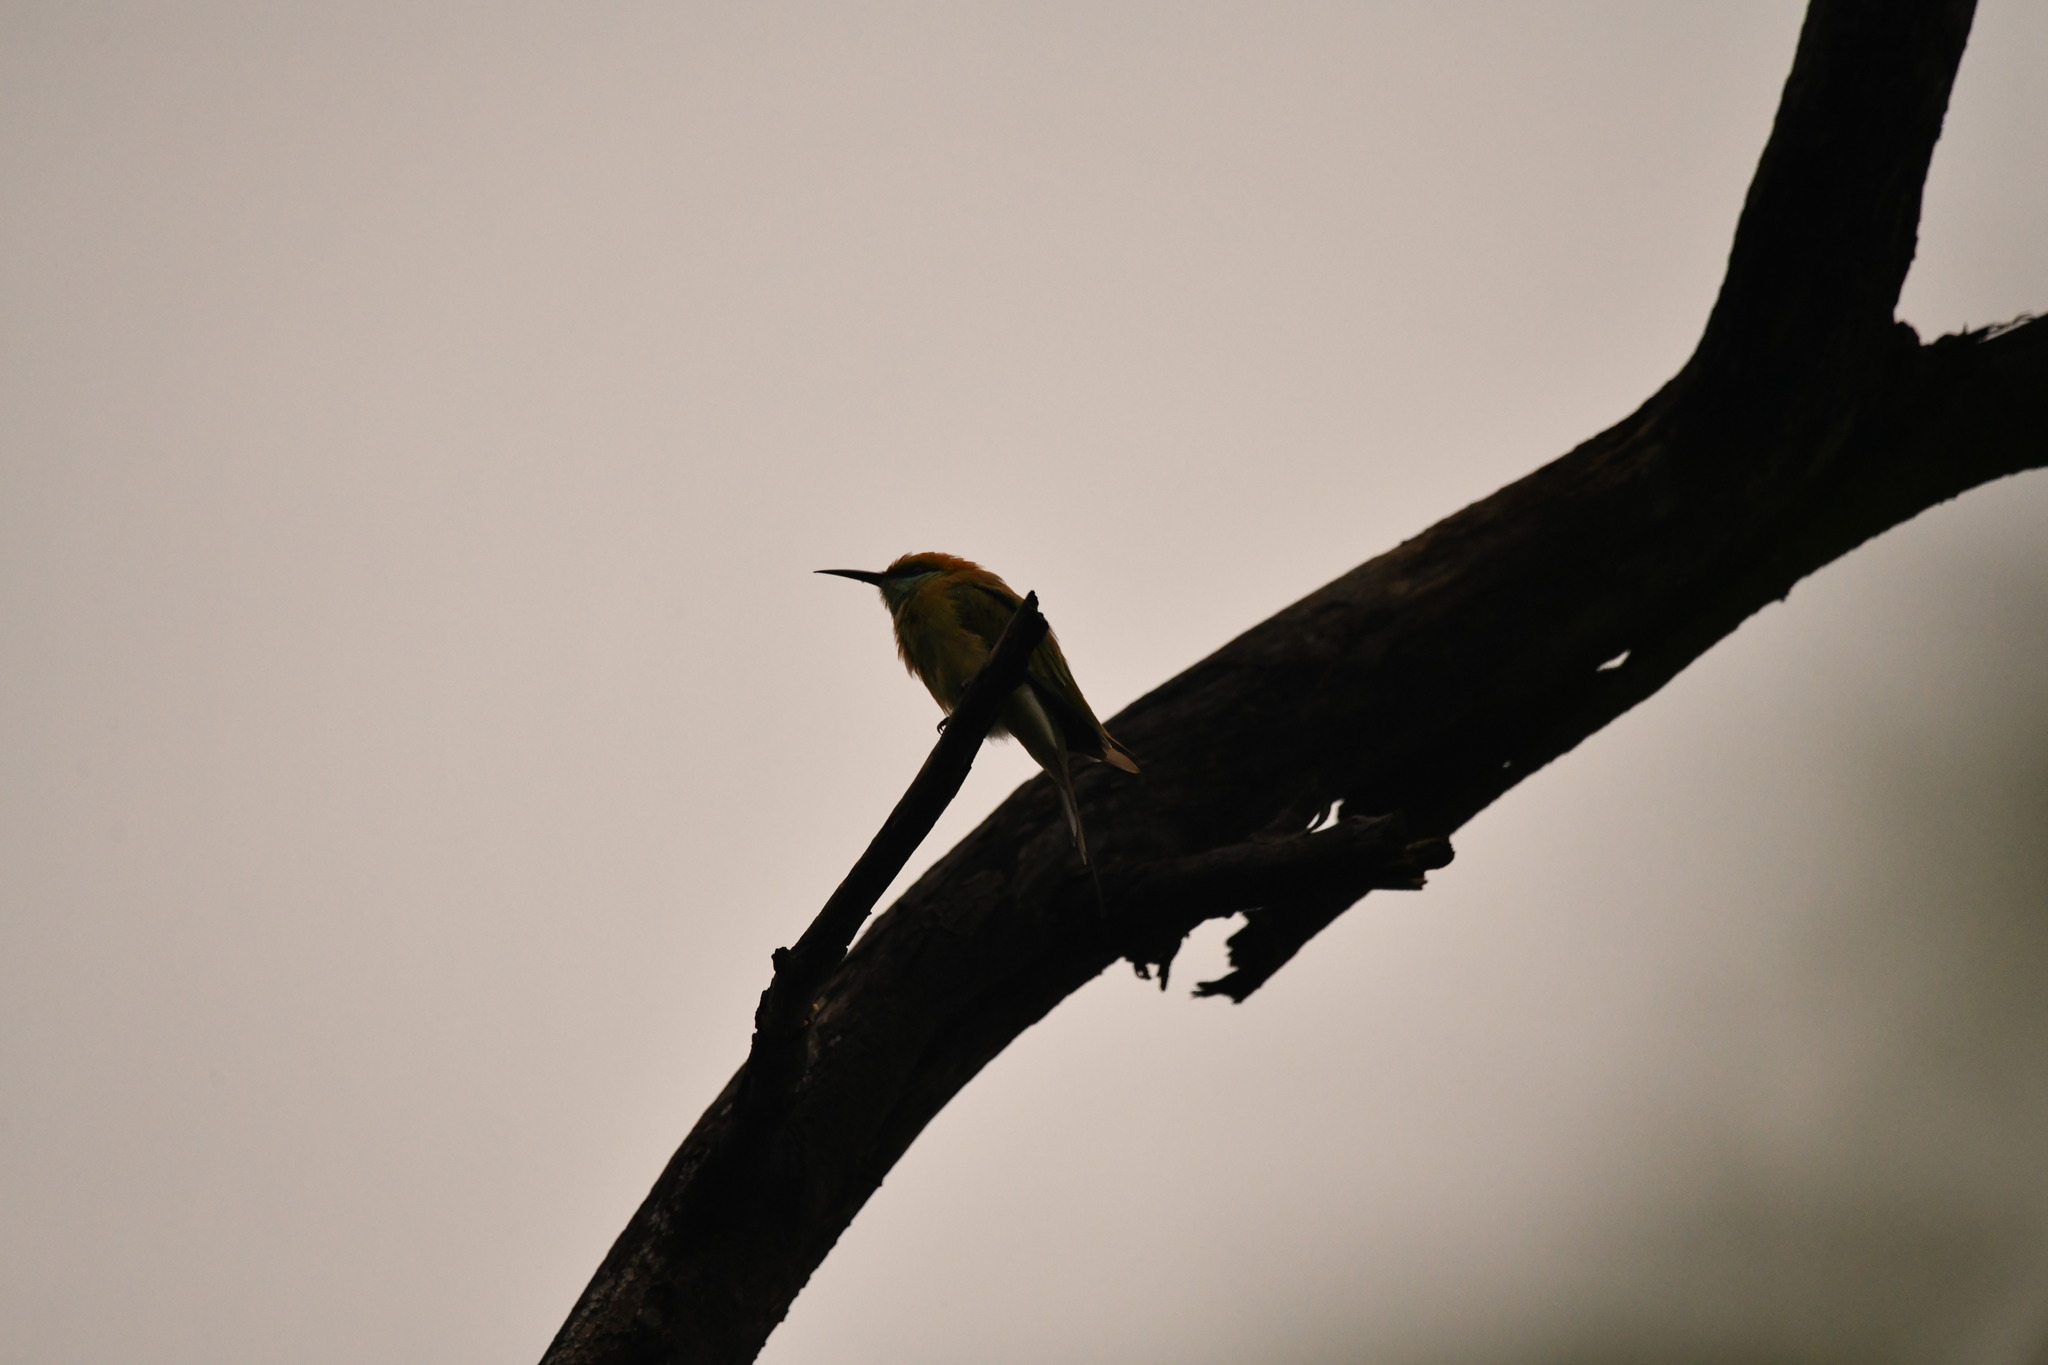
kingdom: Animalia
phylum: Chordata
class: Aves
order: Coraciiformes
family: Meropidae
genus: Merops
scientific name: Merops orientalis
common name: Green bee-eater
